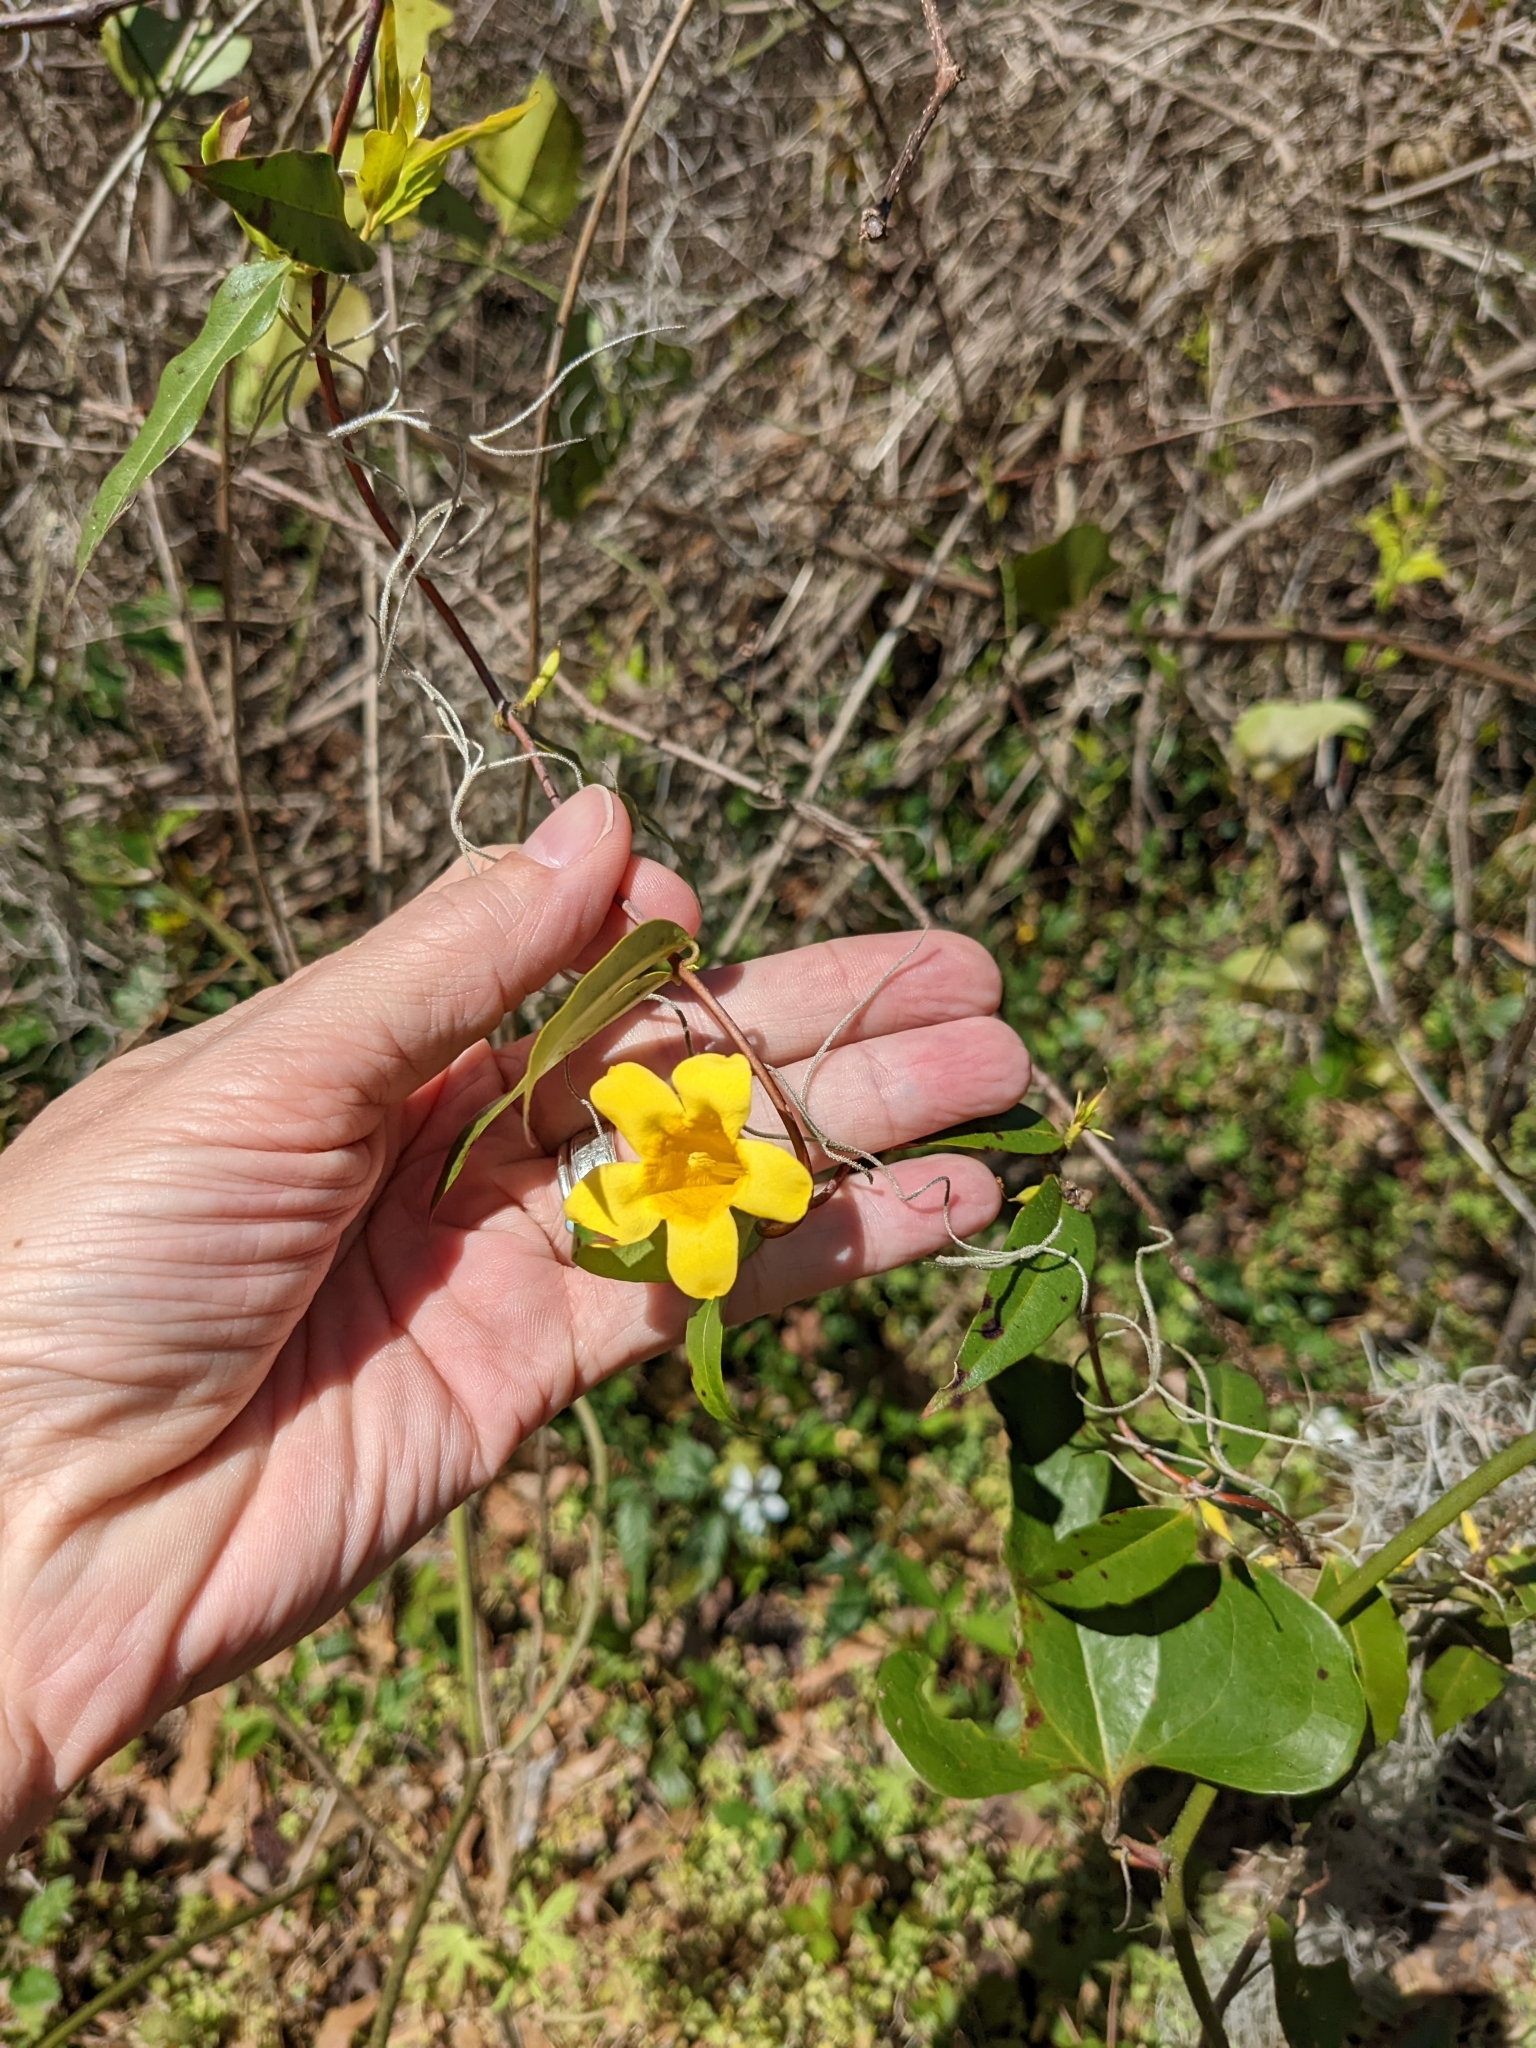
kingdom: Plantae
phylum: Tracheophyta
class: Magnoliopsida
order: Gentianales
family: Gelsemiaceae
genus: Gelsemium
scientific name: Gelsemium sempervirens
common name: Carolina-jasmine
